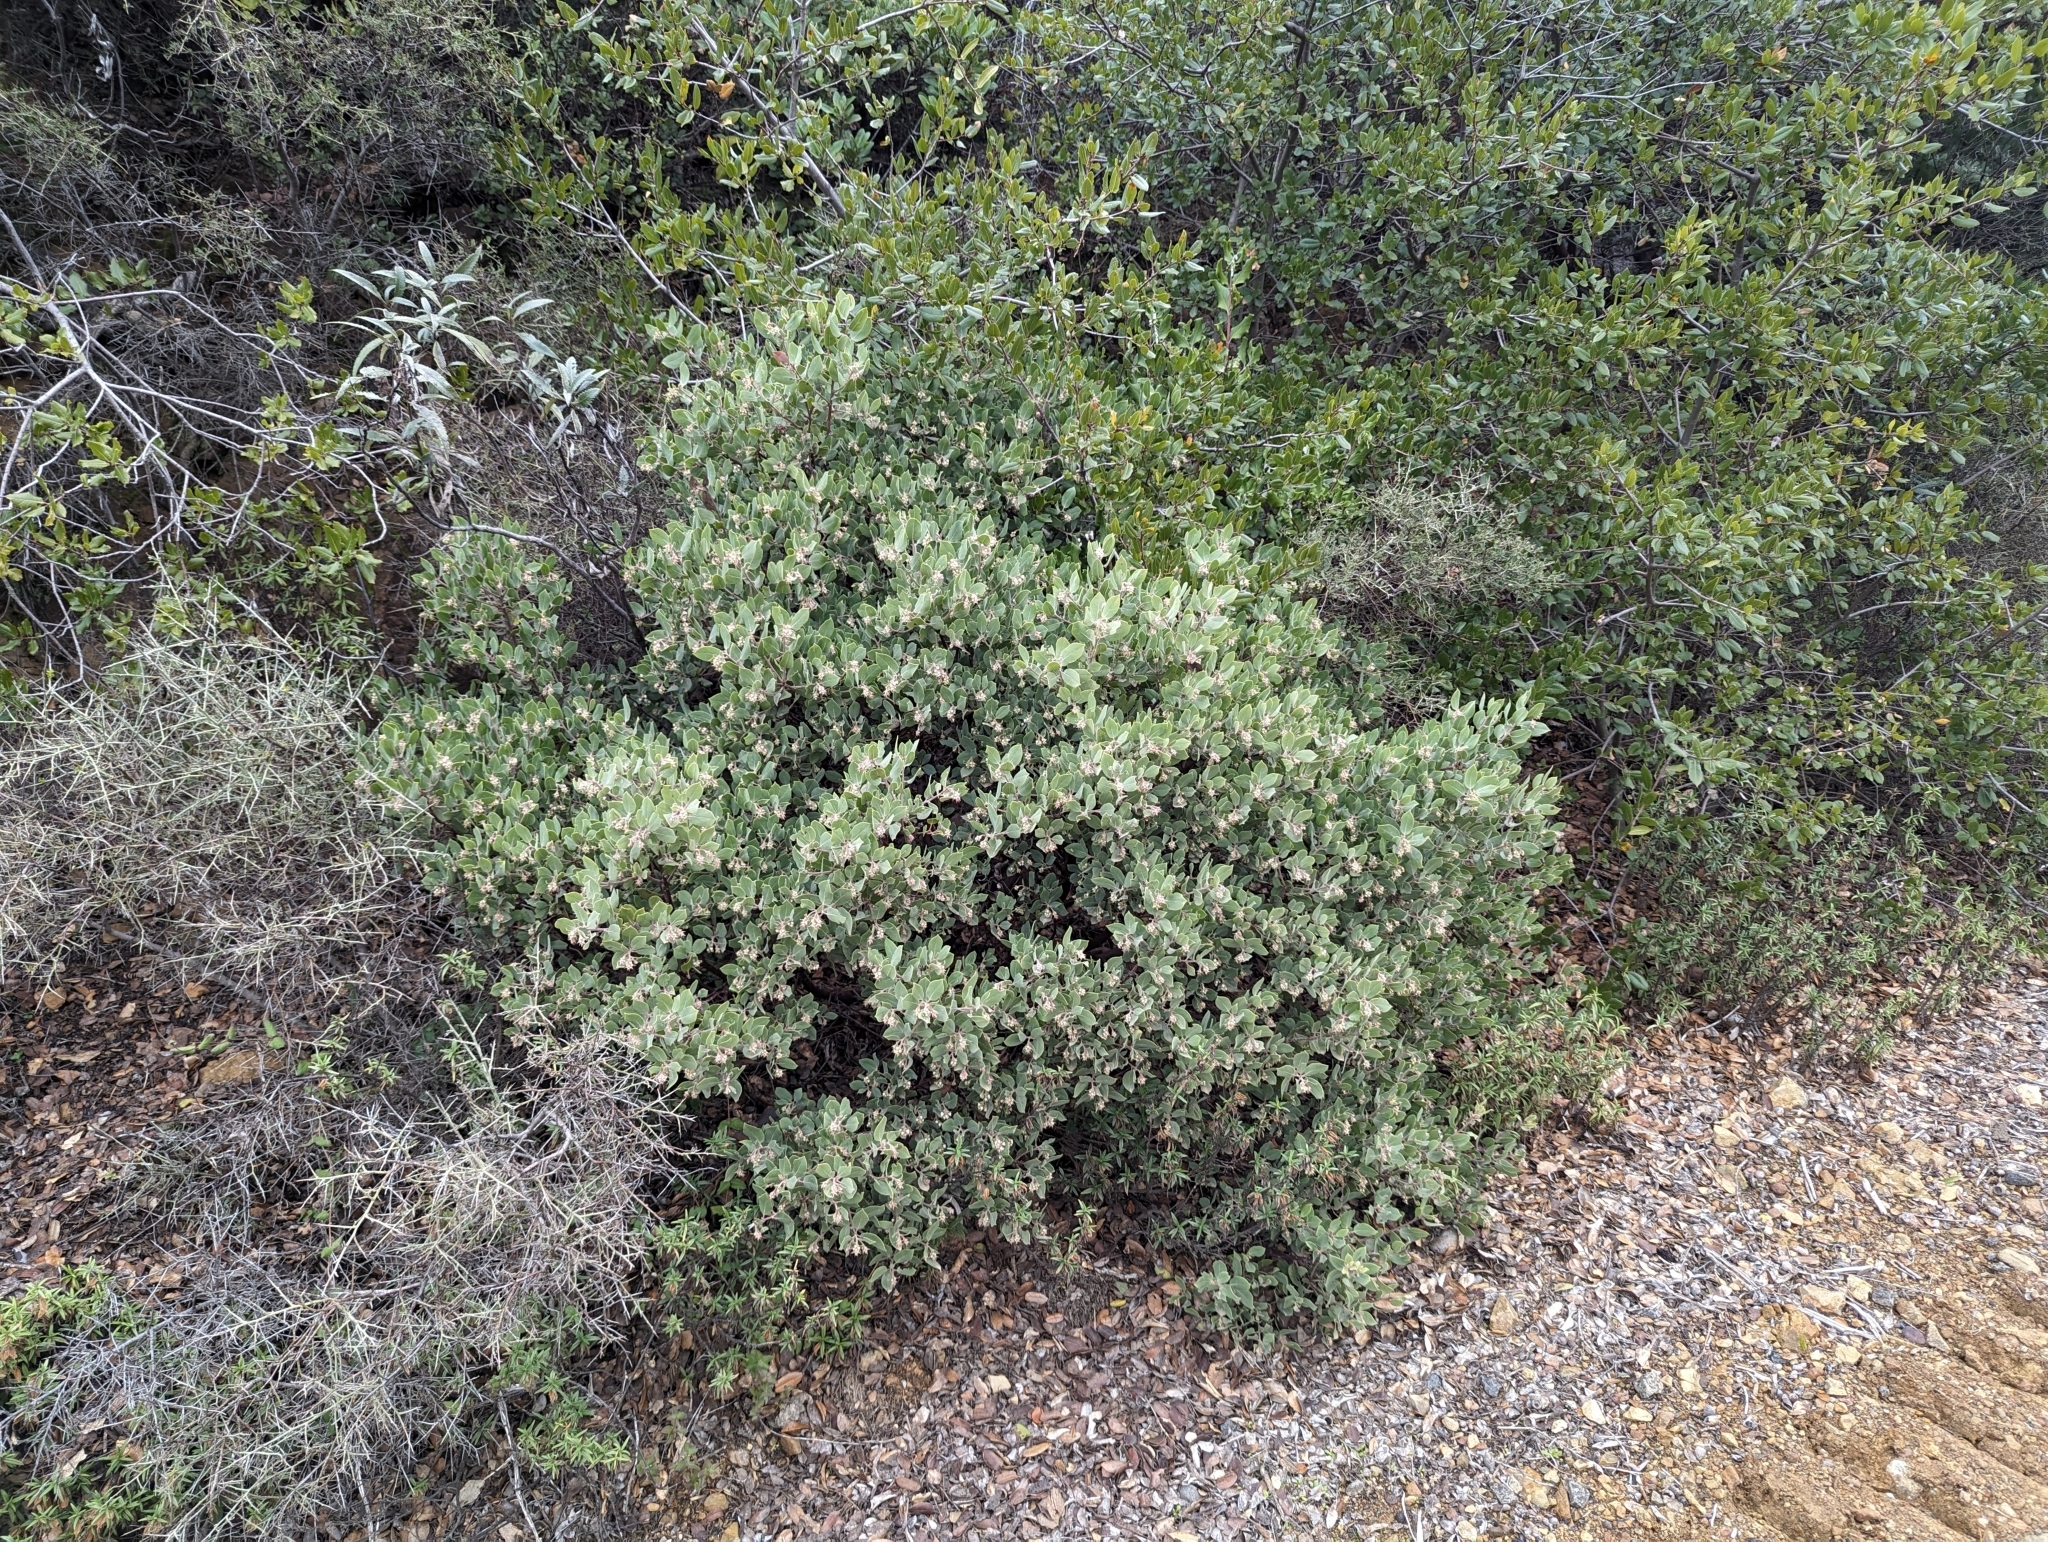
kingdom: Plantae
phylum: Tracheophyta
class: Magnoliopsida
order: Ericales
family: Ericaceae
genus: Arctostaphylos
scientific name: Arctostaphylos glandulosa
